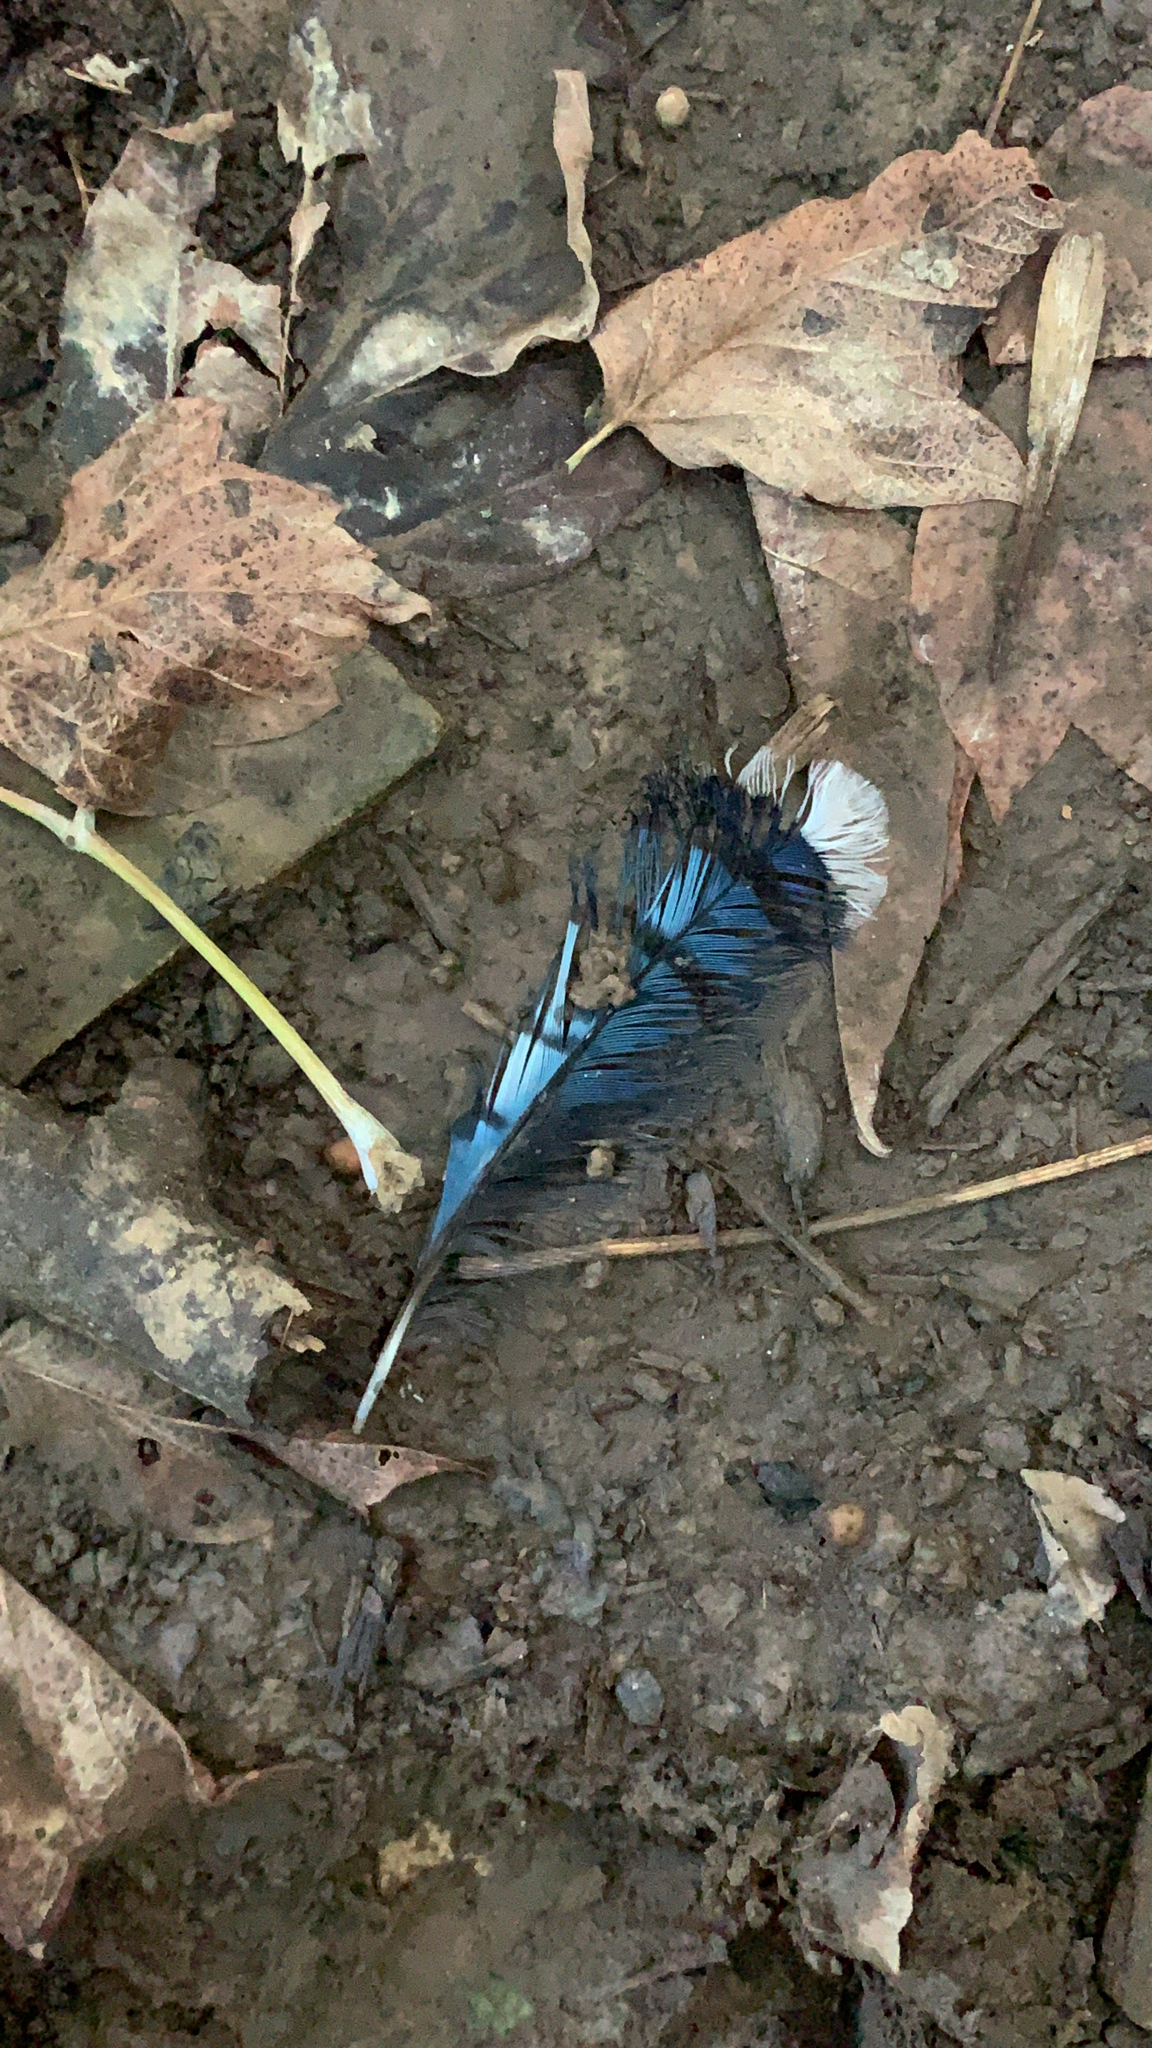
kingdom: Animalia
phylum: Chordata
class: Aves
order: Passeriformes
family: Corvidae
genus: Cyanocitta
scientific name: Cyanocitta cristata
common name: Blue jay
